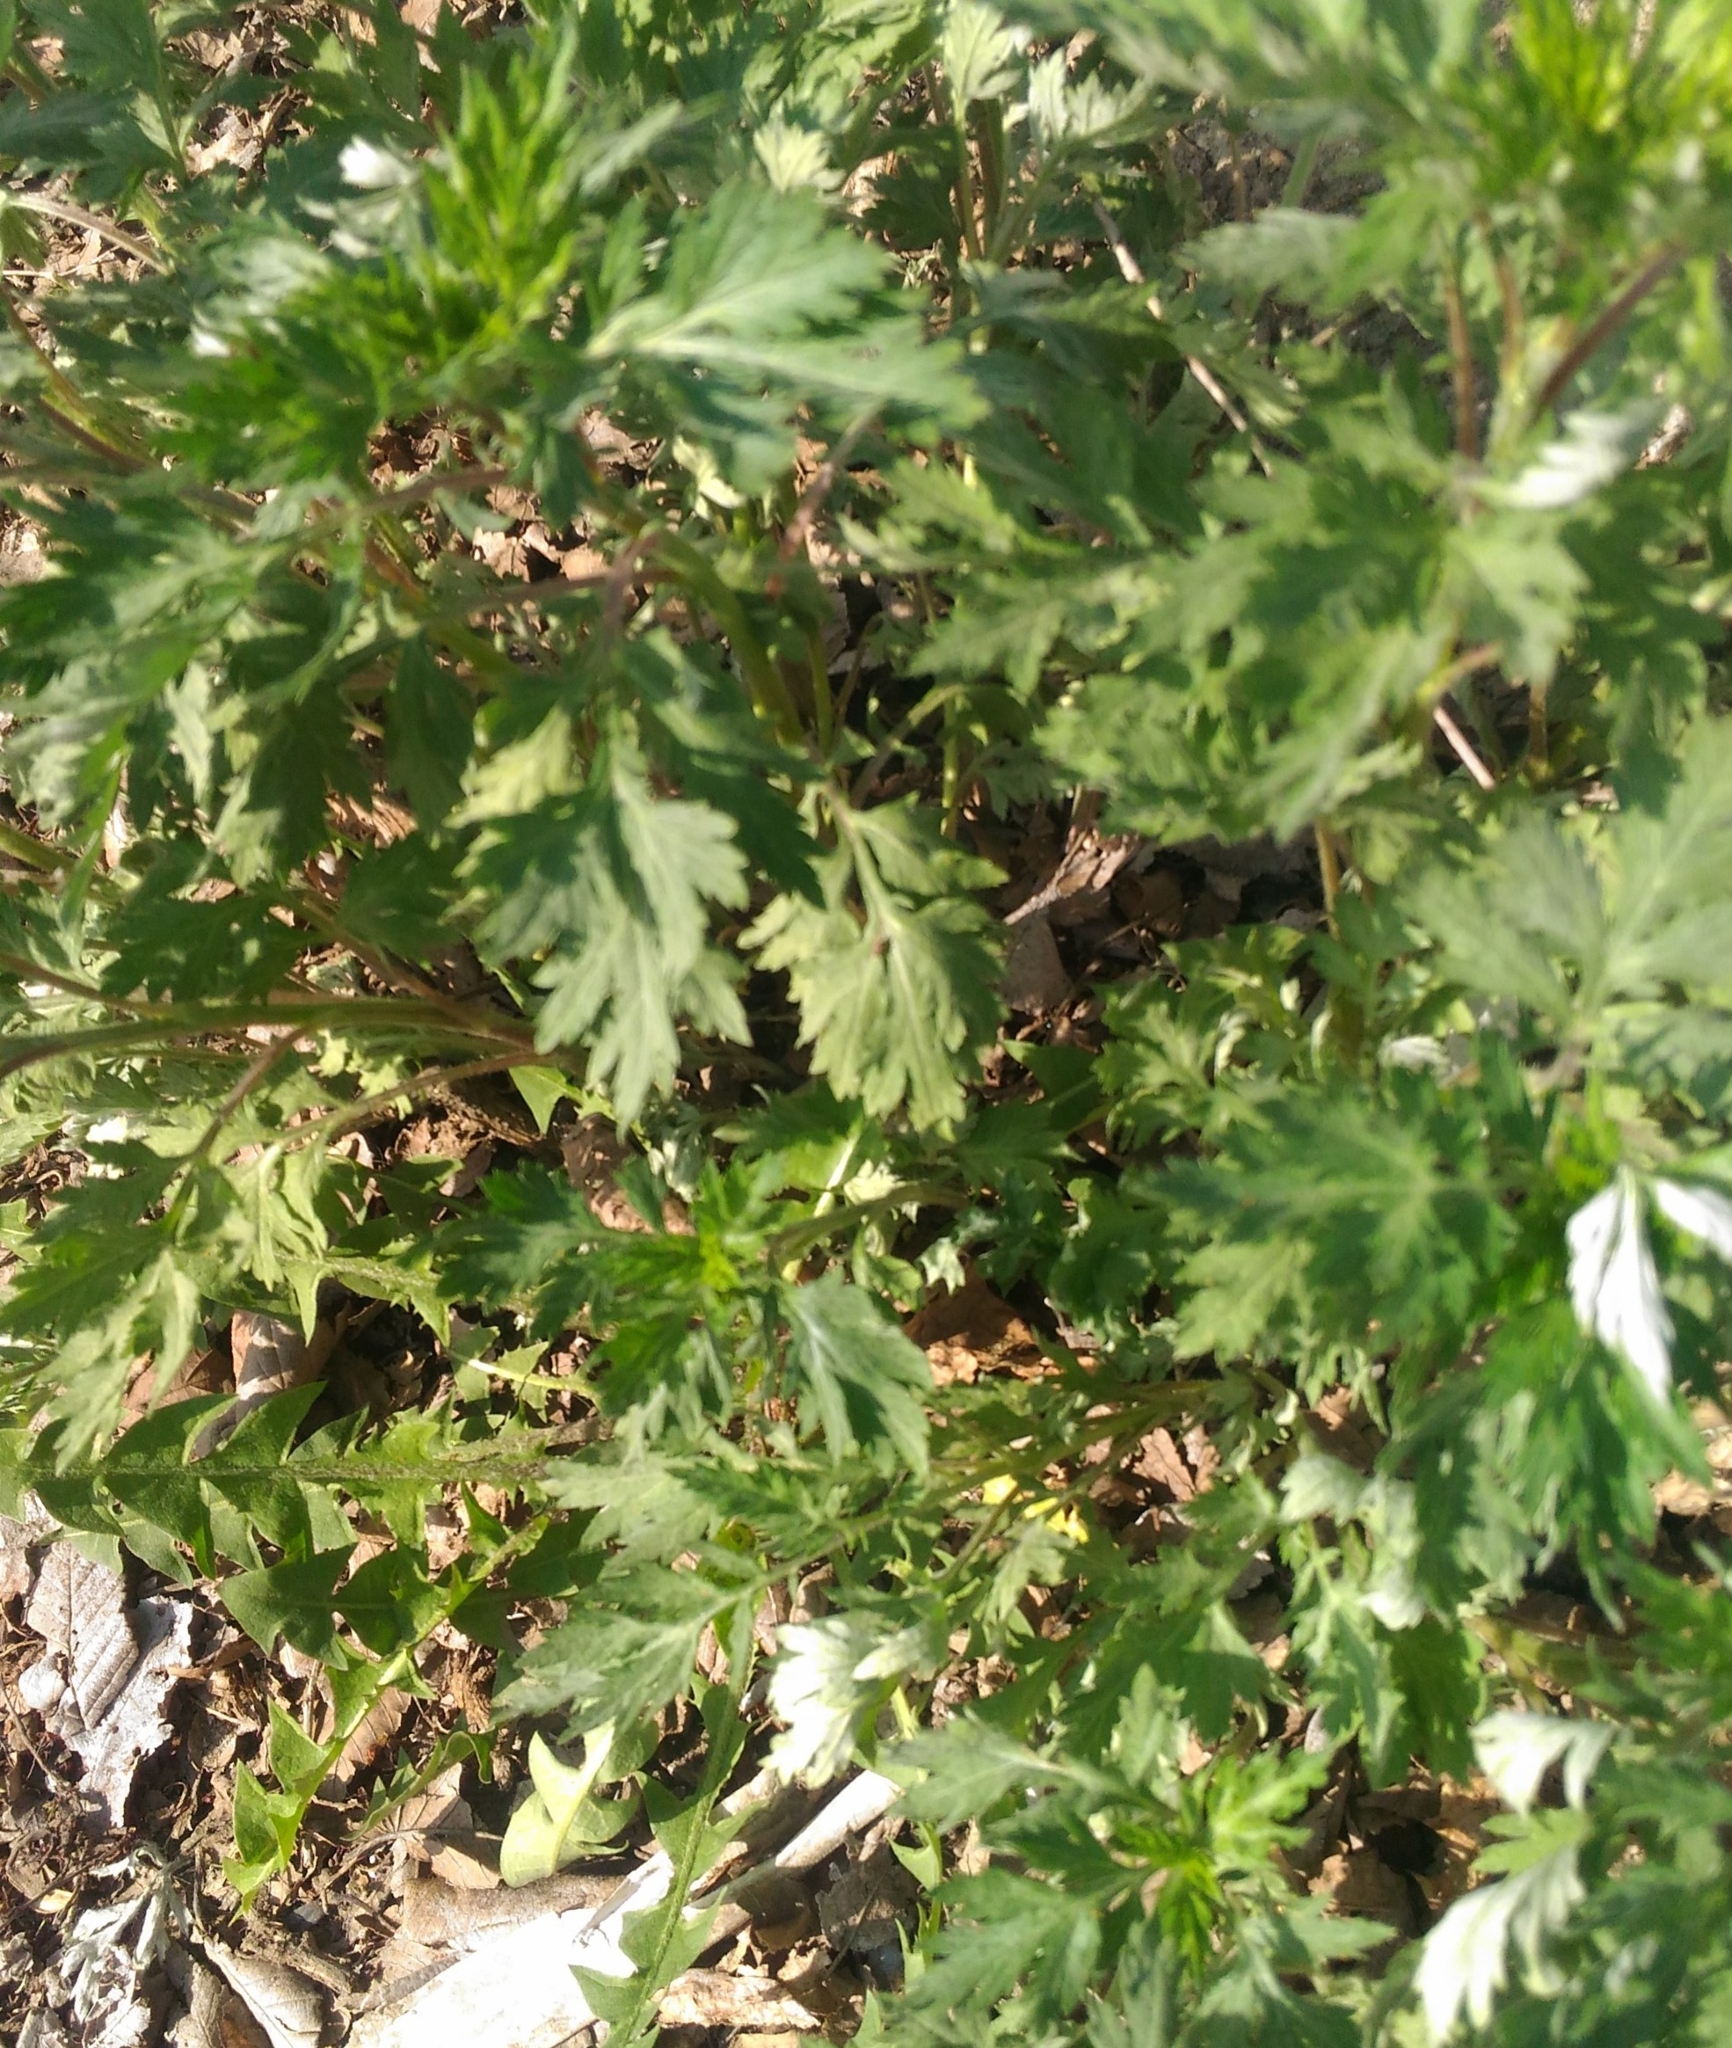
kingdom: Plantae
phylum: Tracheophyta
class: Magnoliopsida
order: Asterales
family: Asteraceae
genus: Artemisia
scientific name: Artemisia vulgaris
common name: Mugwort
